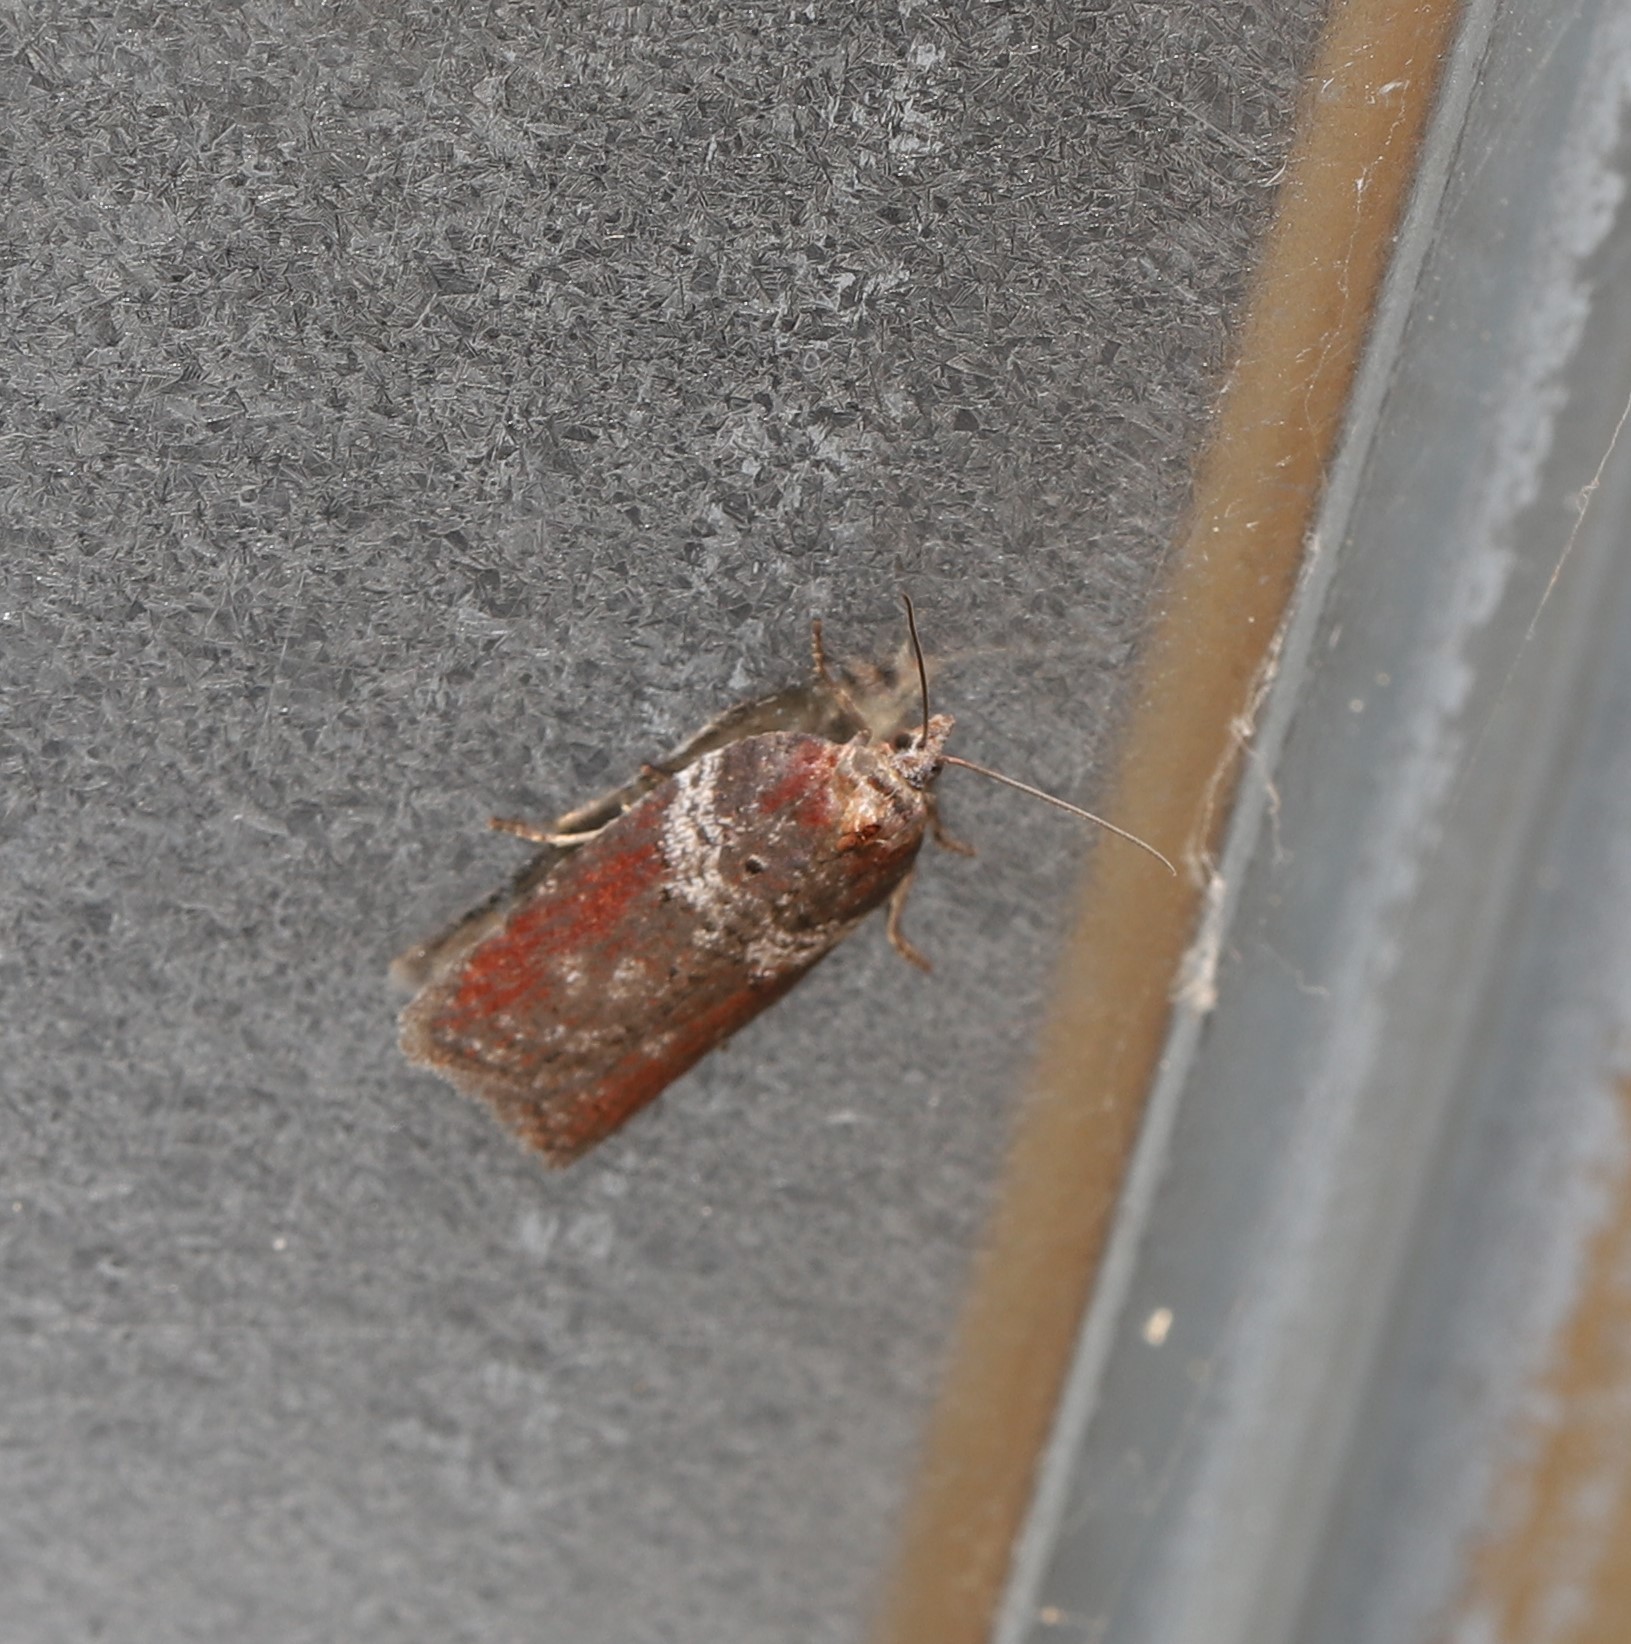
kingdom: Animalia
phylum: Arthropoda
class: Insecta
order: Lepidoptera
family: Tortricidae
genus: Acleris
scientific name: Acleris celiana
